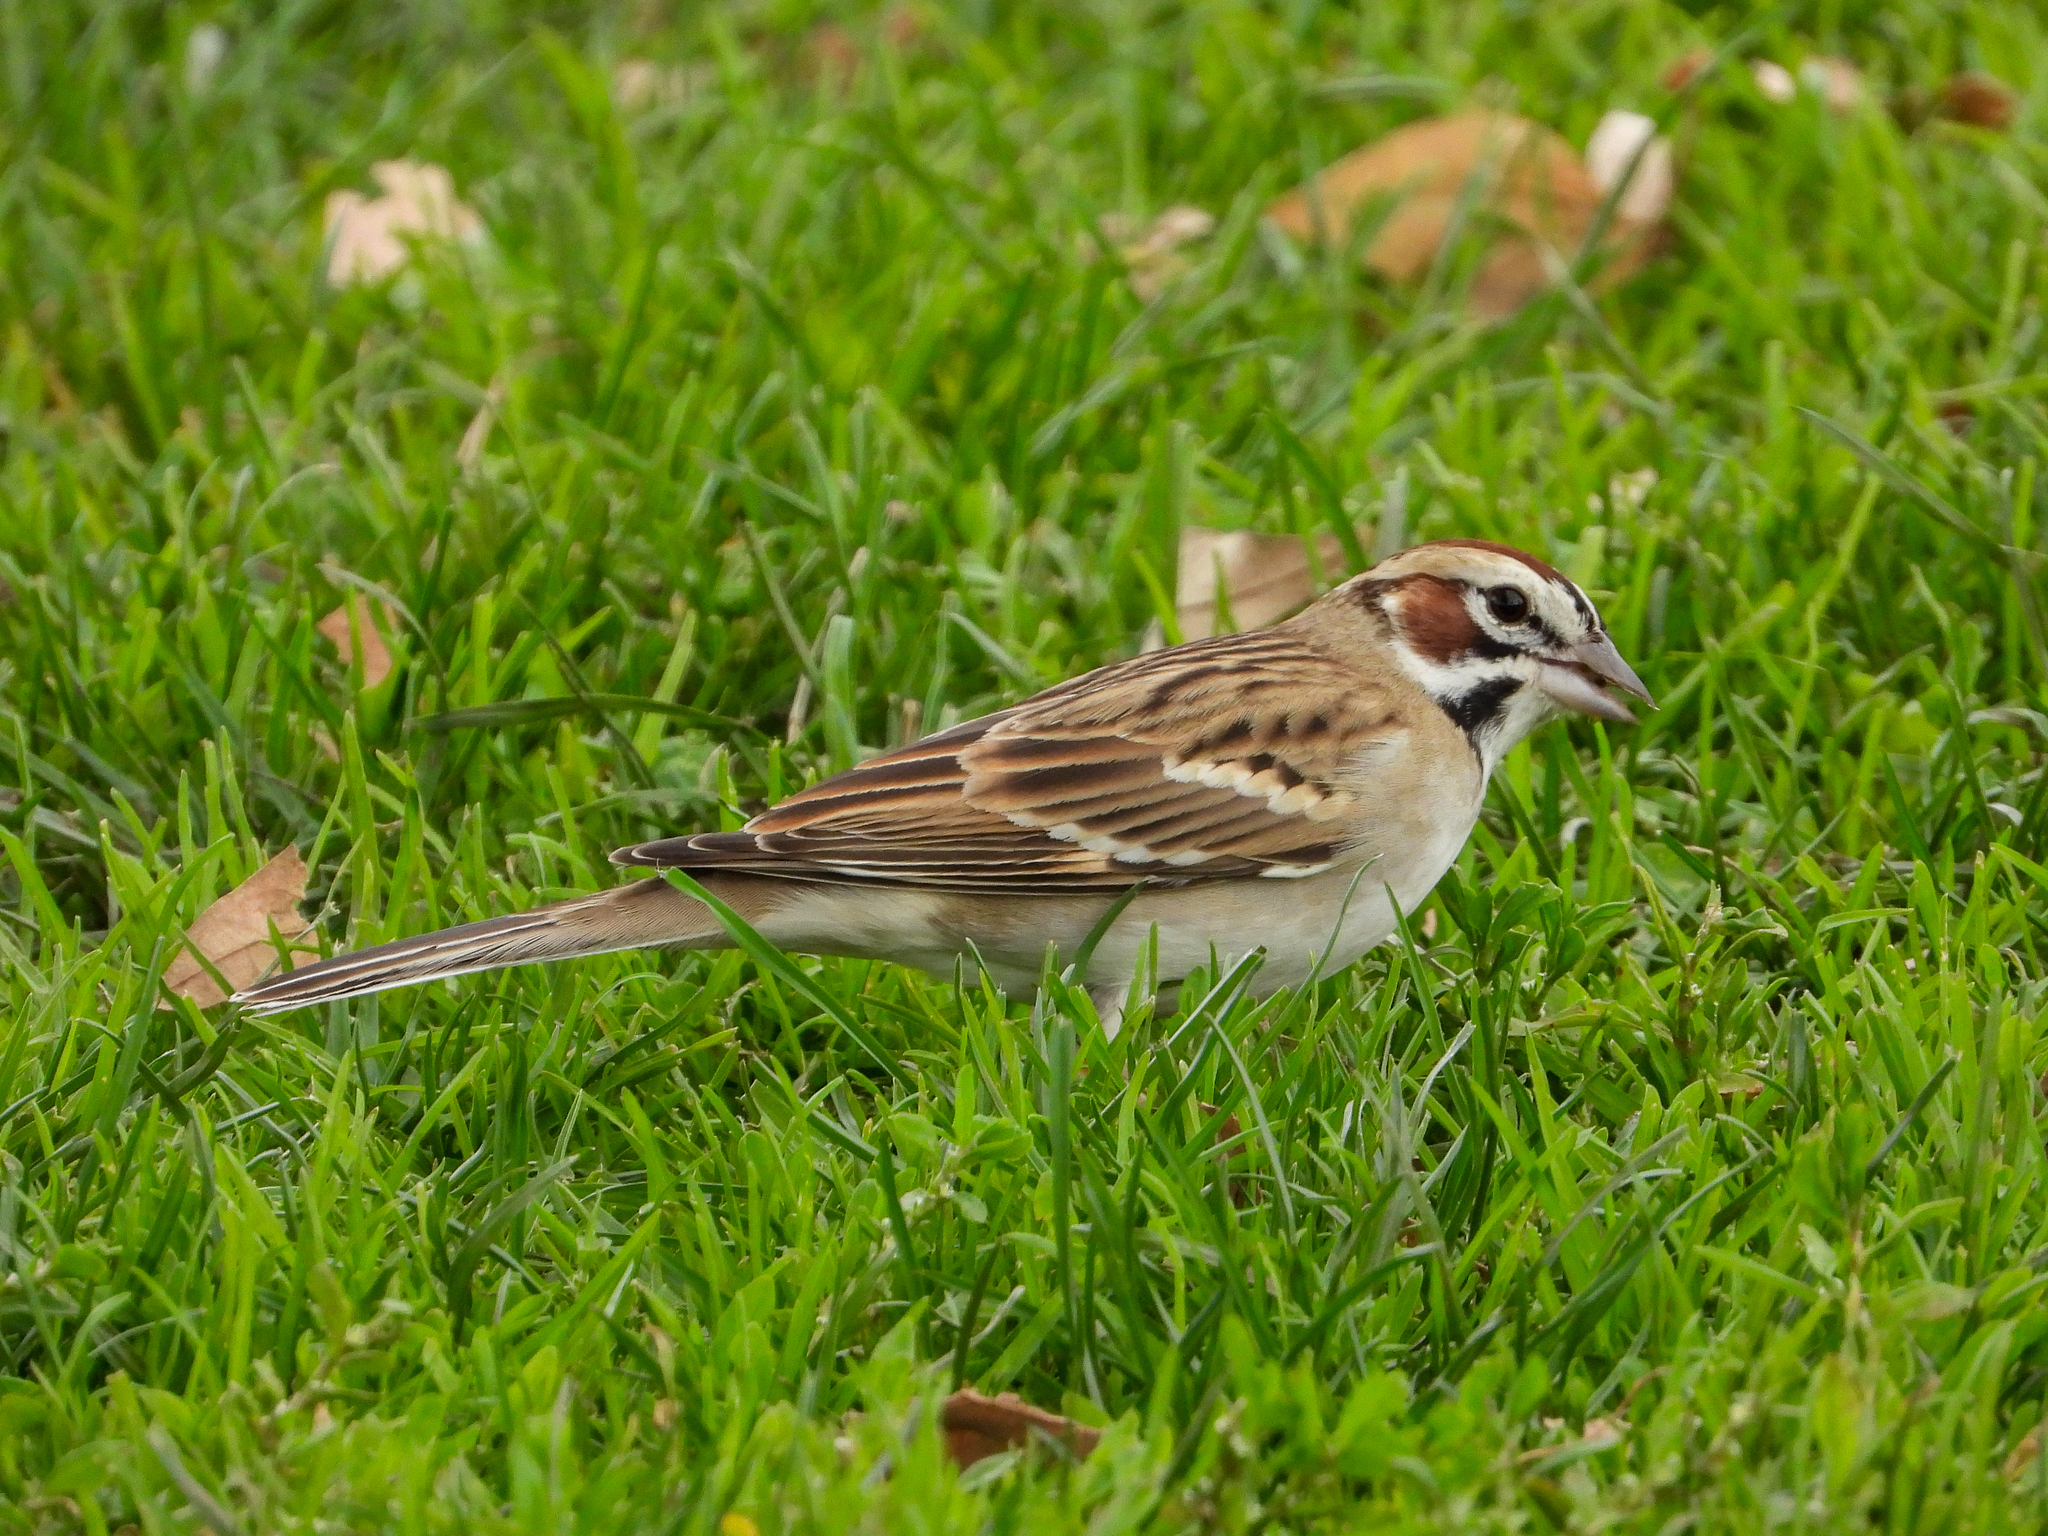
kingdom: Animalia
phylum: Chordata
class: Aves
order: Passeriformes
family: Passerellidae
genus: Chondestes
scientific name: Chondestes grammacus
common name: Lark sparrow
